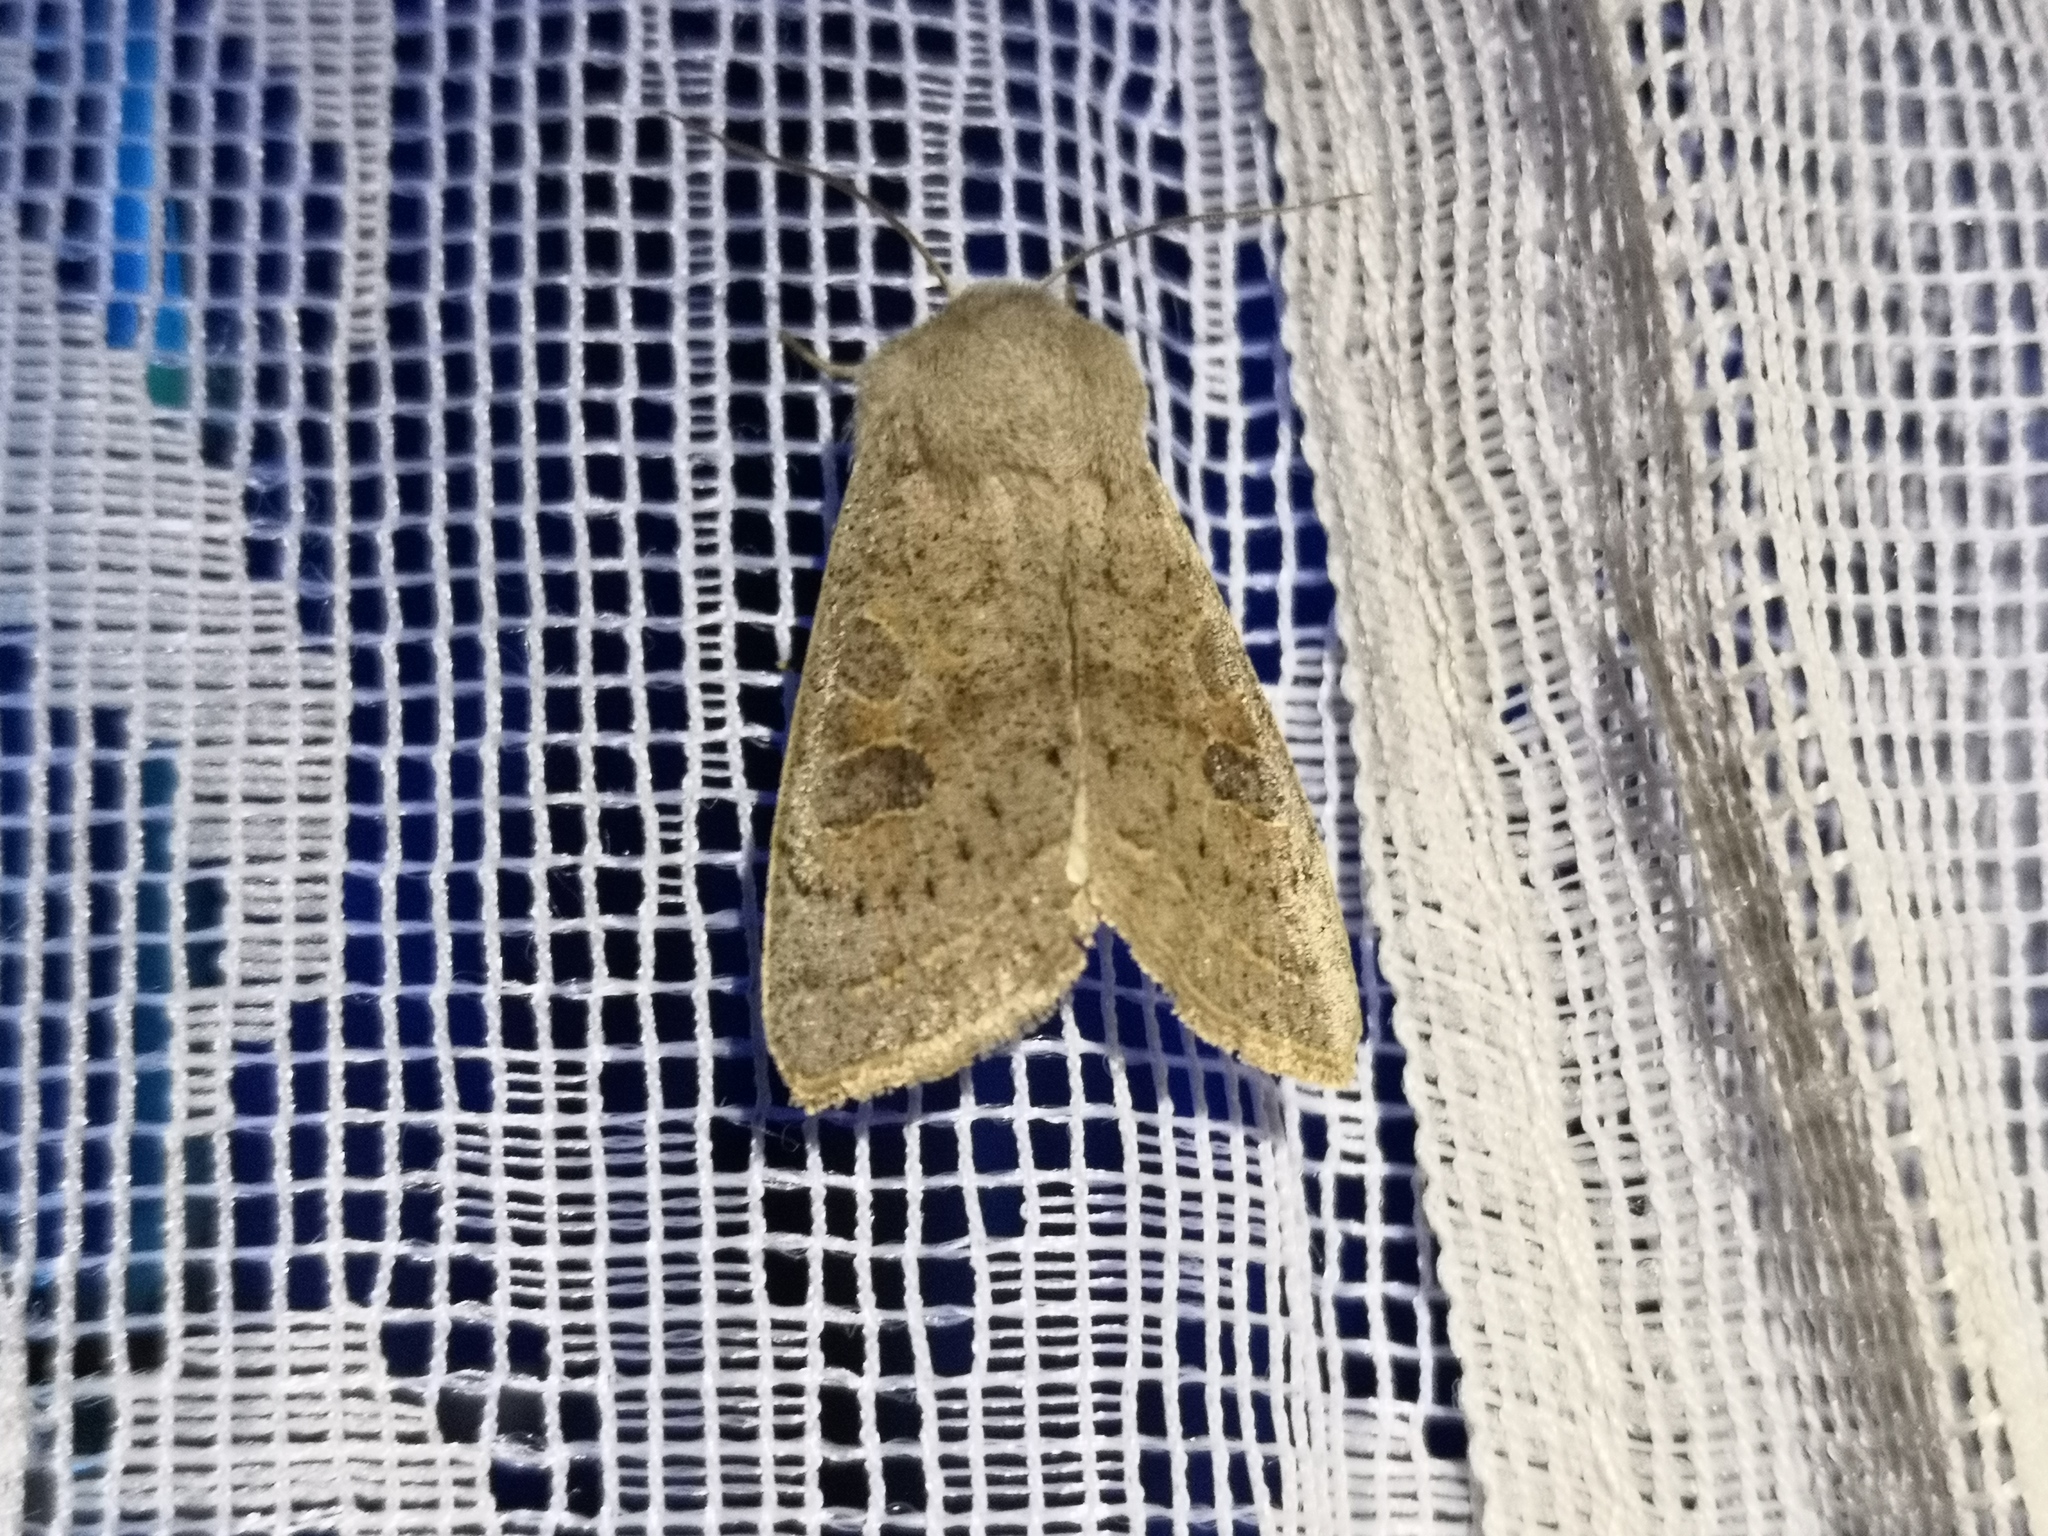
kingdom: Animalia
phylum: Arthropoda
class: Insecta
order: Lepidoptera
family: Noctuidae
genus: Orthosia
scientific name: Orthosia gracilis
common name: Powdered quaker
